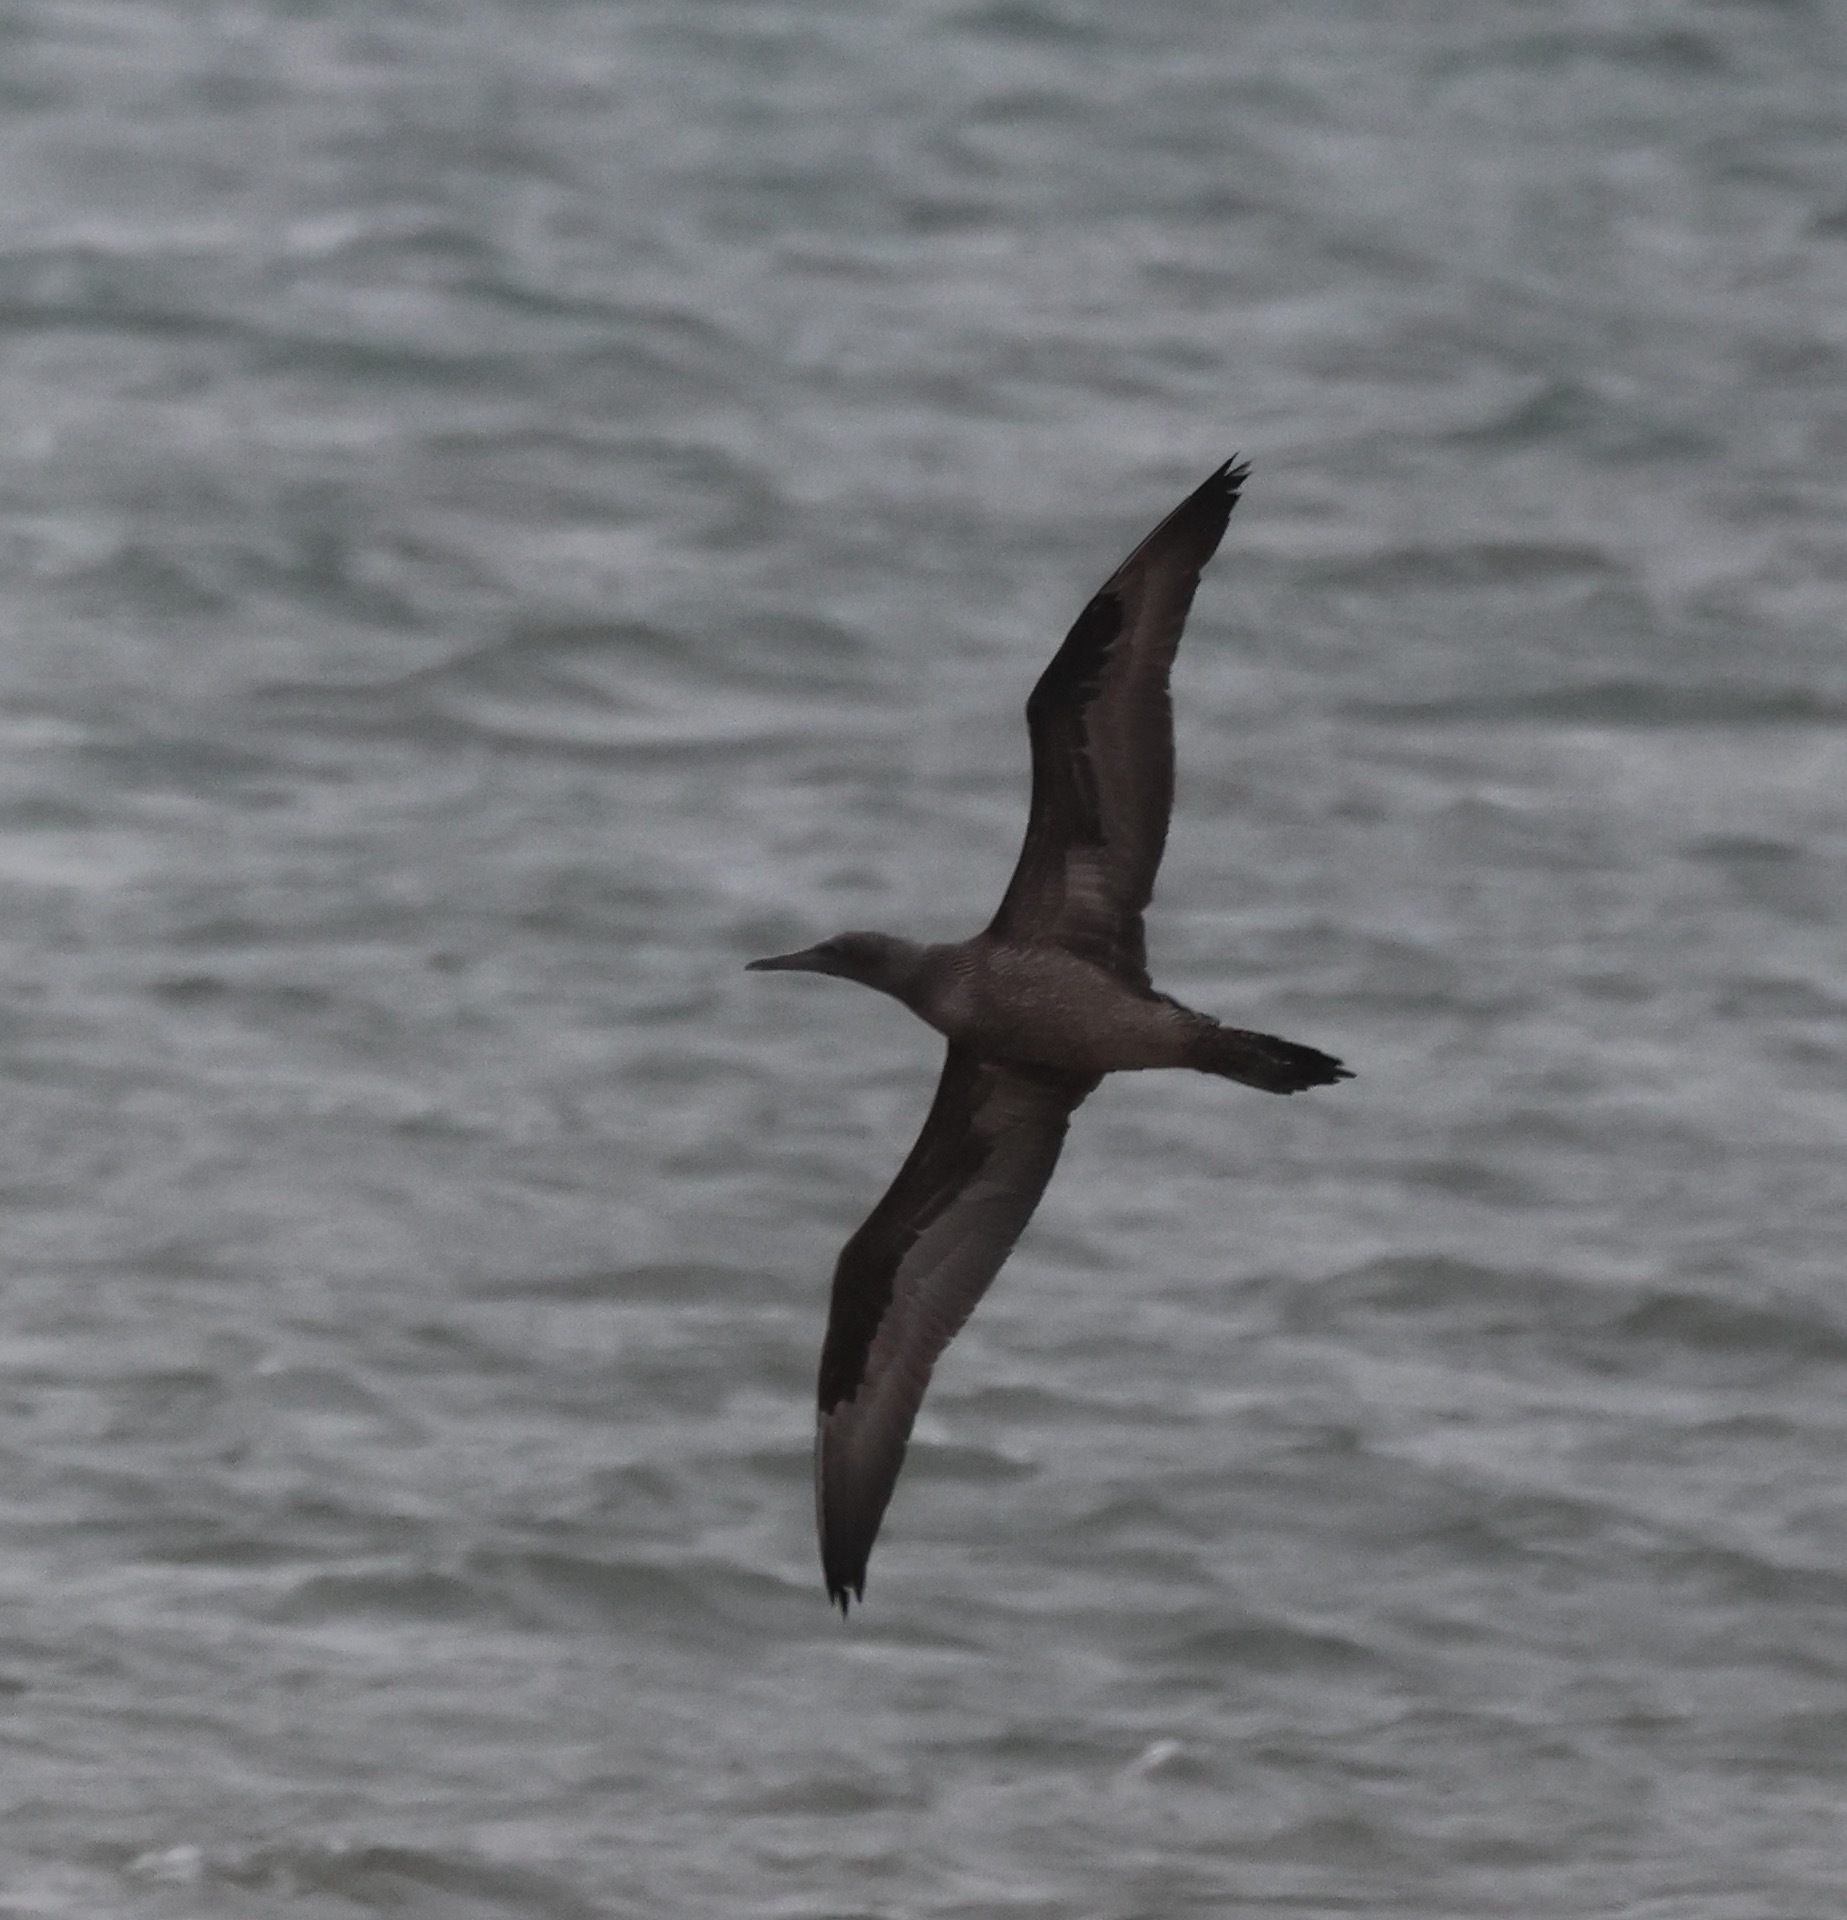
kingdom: Animalia
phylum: Chordata
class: Aves
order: Suliformes
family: Sulidae
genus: Morus
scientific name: Morus bassanus
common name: Northern gannet
